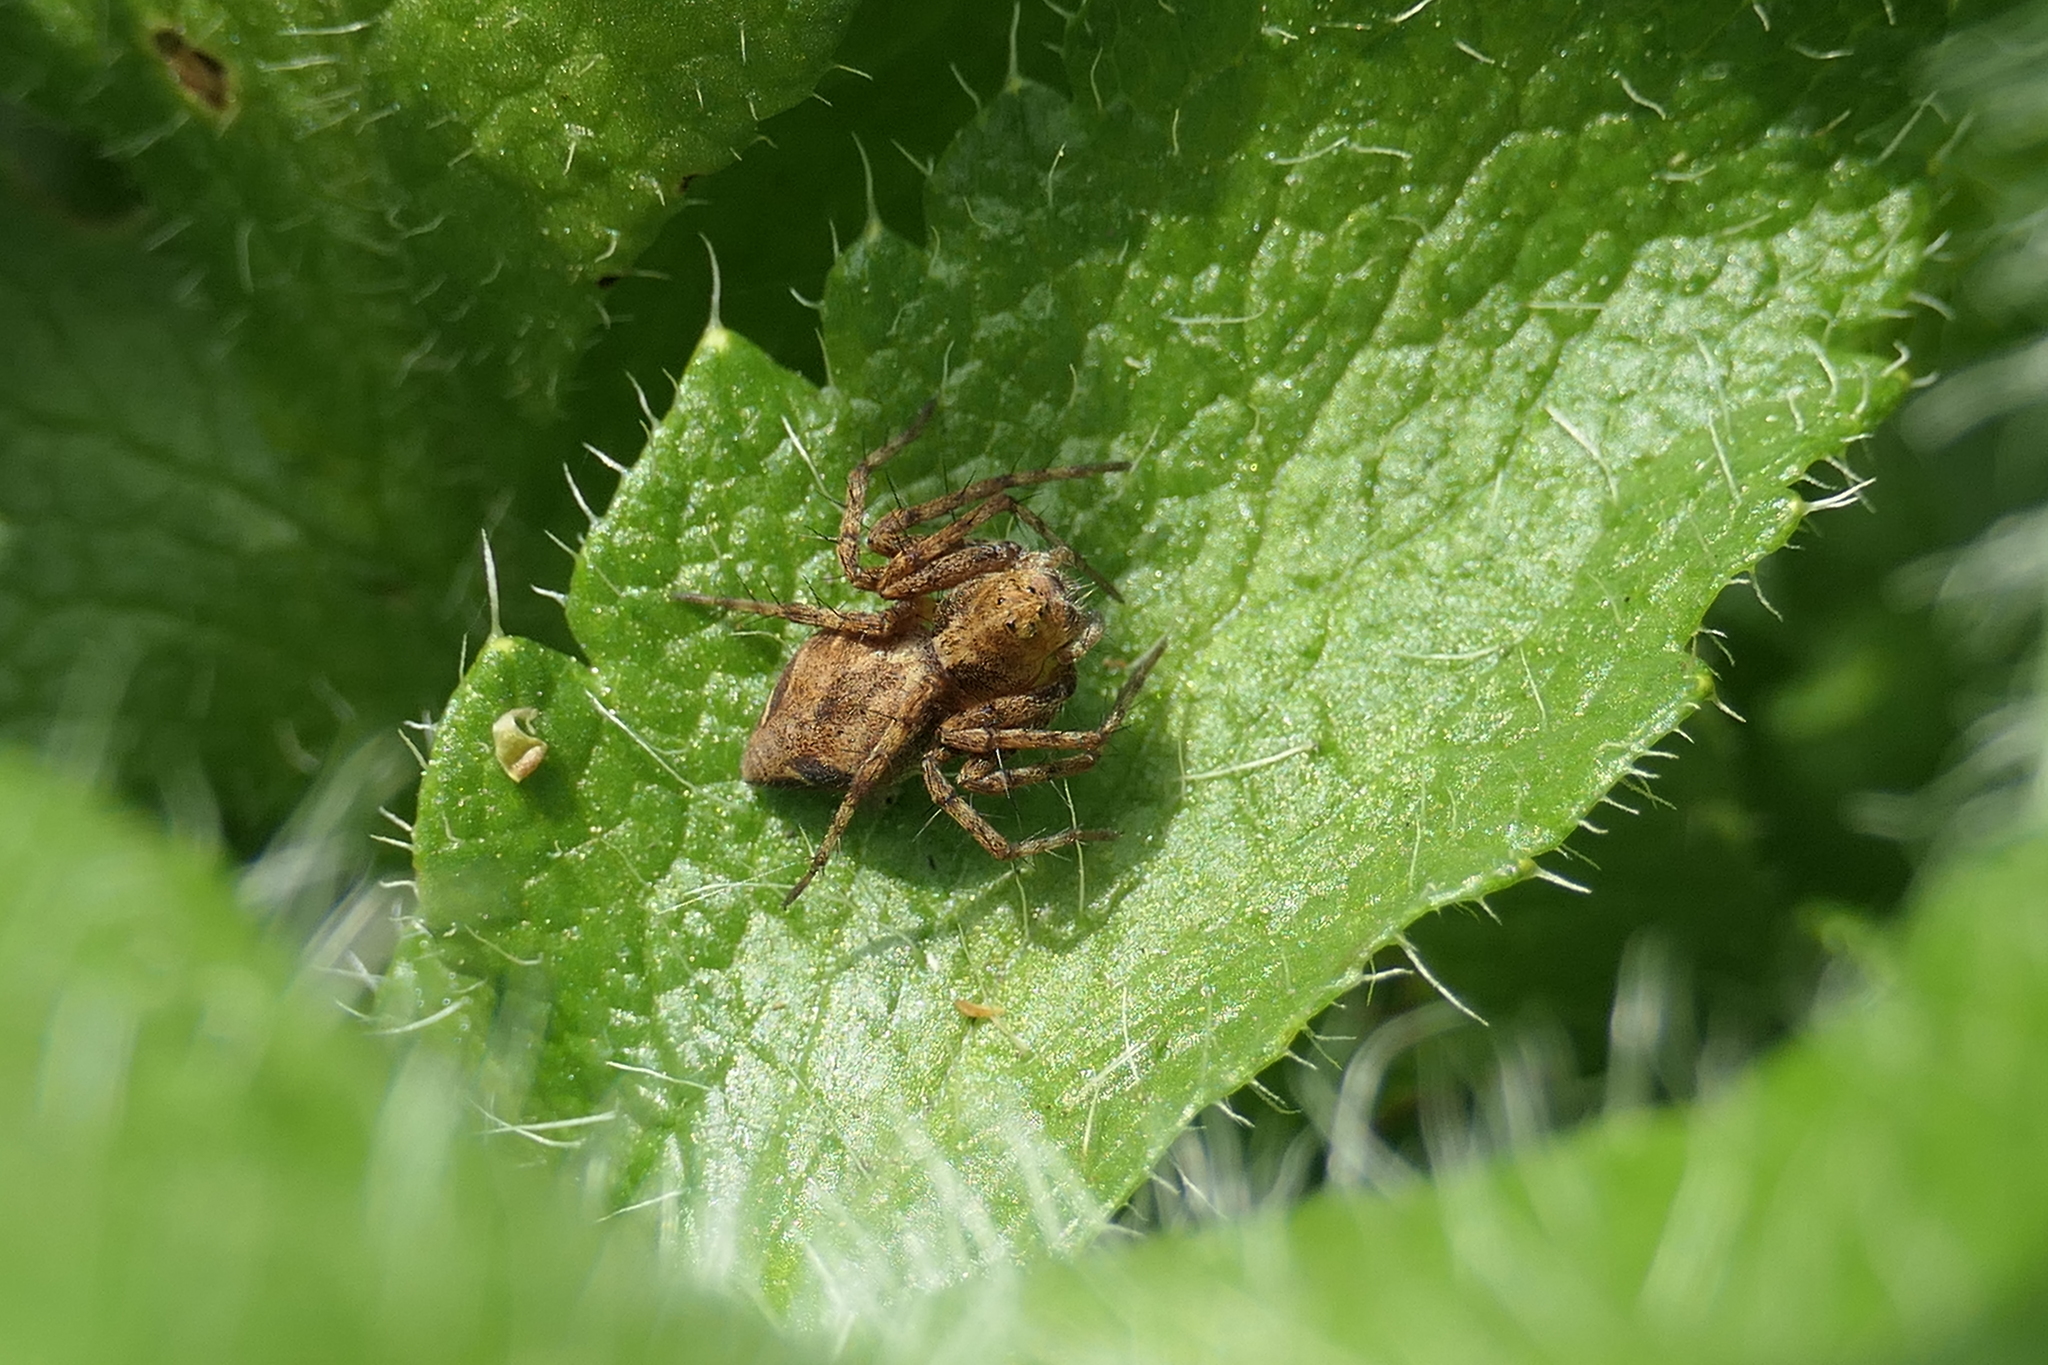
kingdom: Animalia
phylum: Arthropoda
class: Arachnida
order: Araneae
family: Oxyopidae
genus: Oxyopes
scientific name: Oxyopes scalaris
